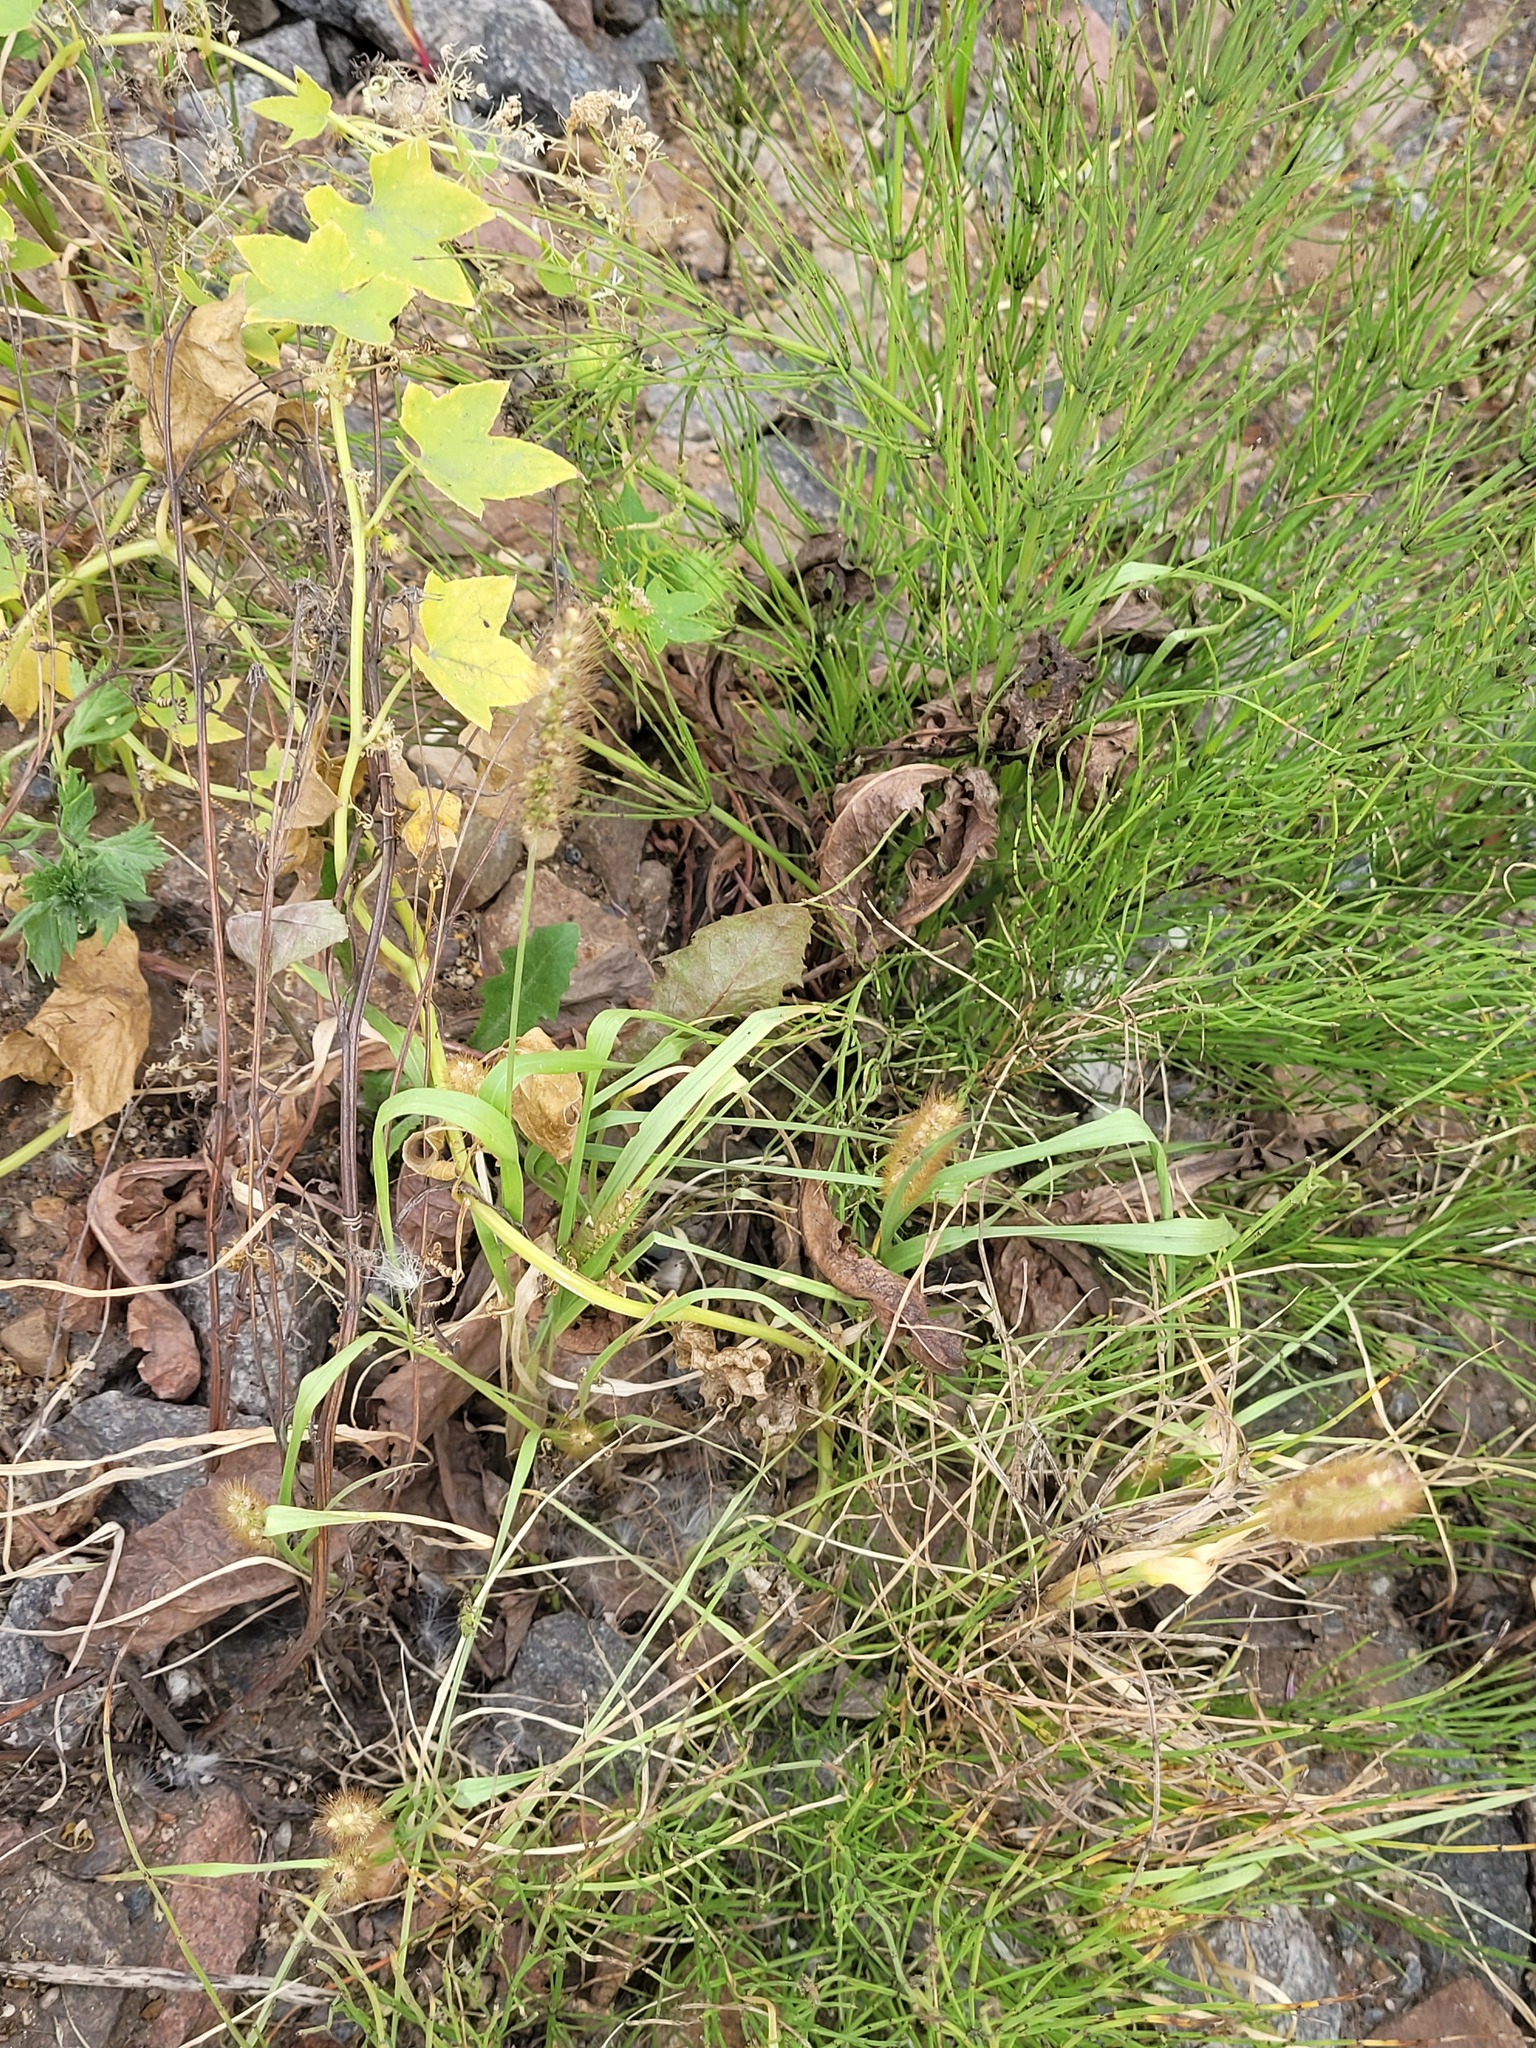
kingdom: Plantae
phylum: Tracheophyta
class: Liliopsida
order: Poales
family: Poaceae
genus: Setaria
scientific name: Setaria pumila
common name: Yellow bristle-grass
